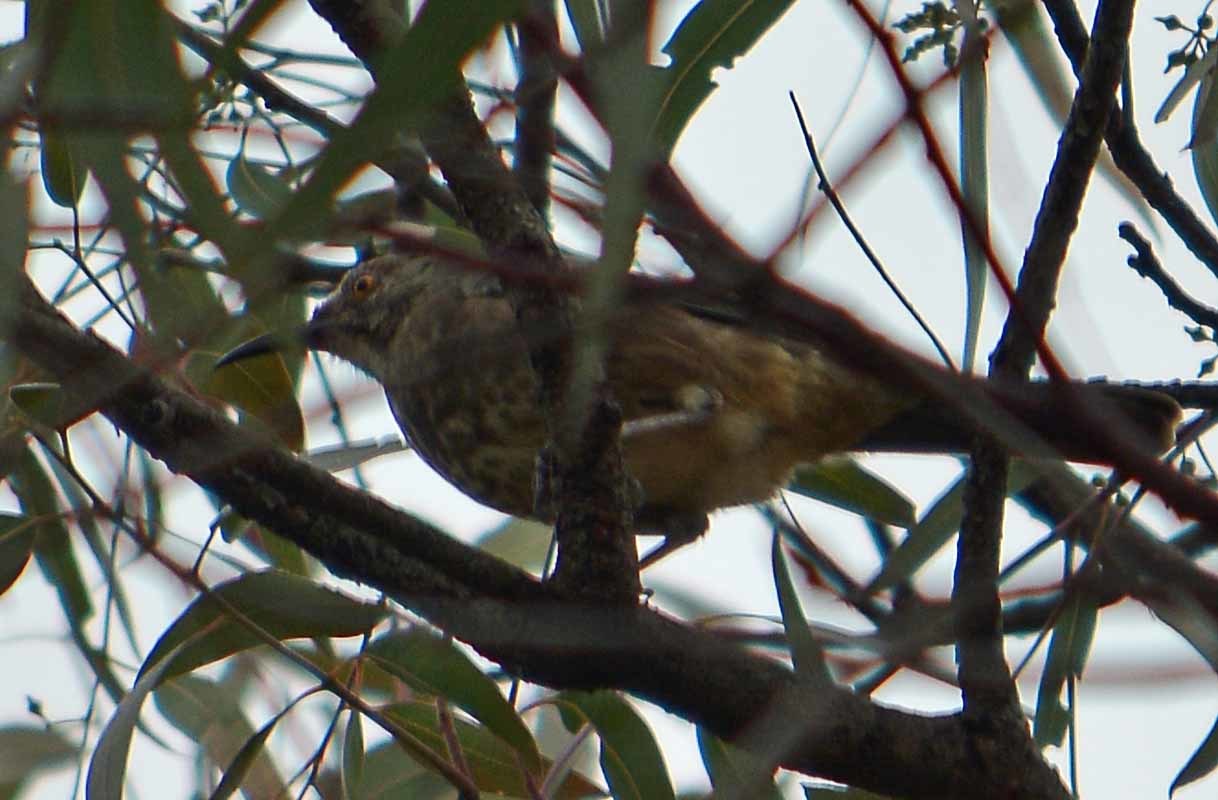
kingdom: Animalia
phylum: Chordata
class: Aves
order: Passeriformes
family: Mimidae
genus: Toxostoma
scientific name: Toxostoma curvirostre
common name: Curve-billed thrasher
